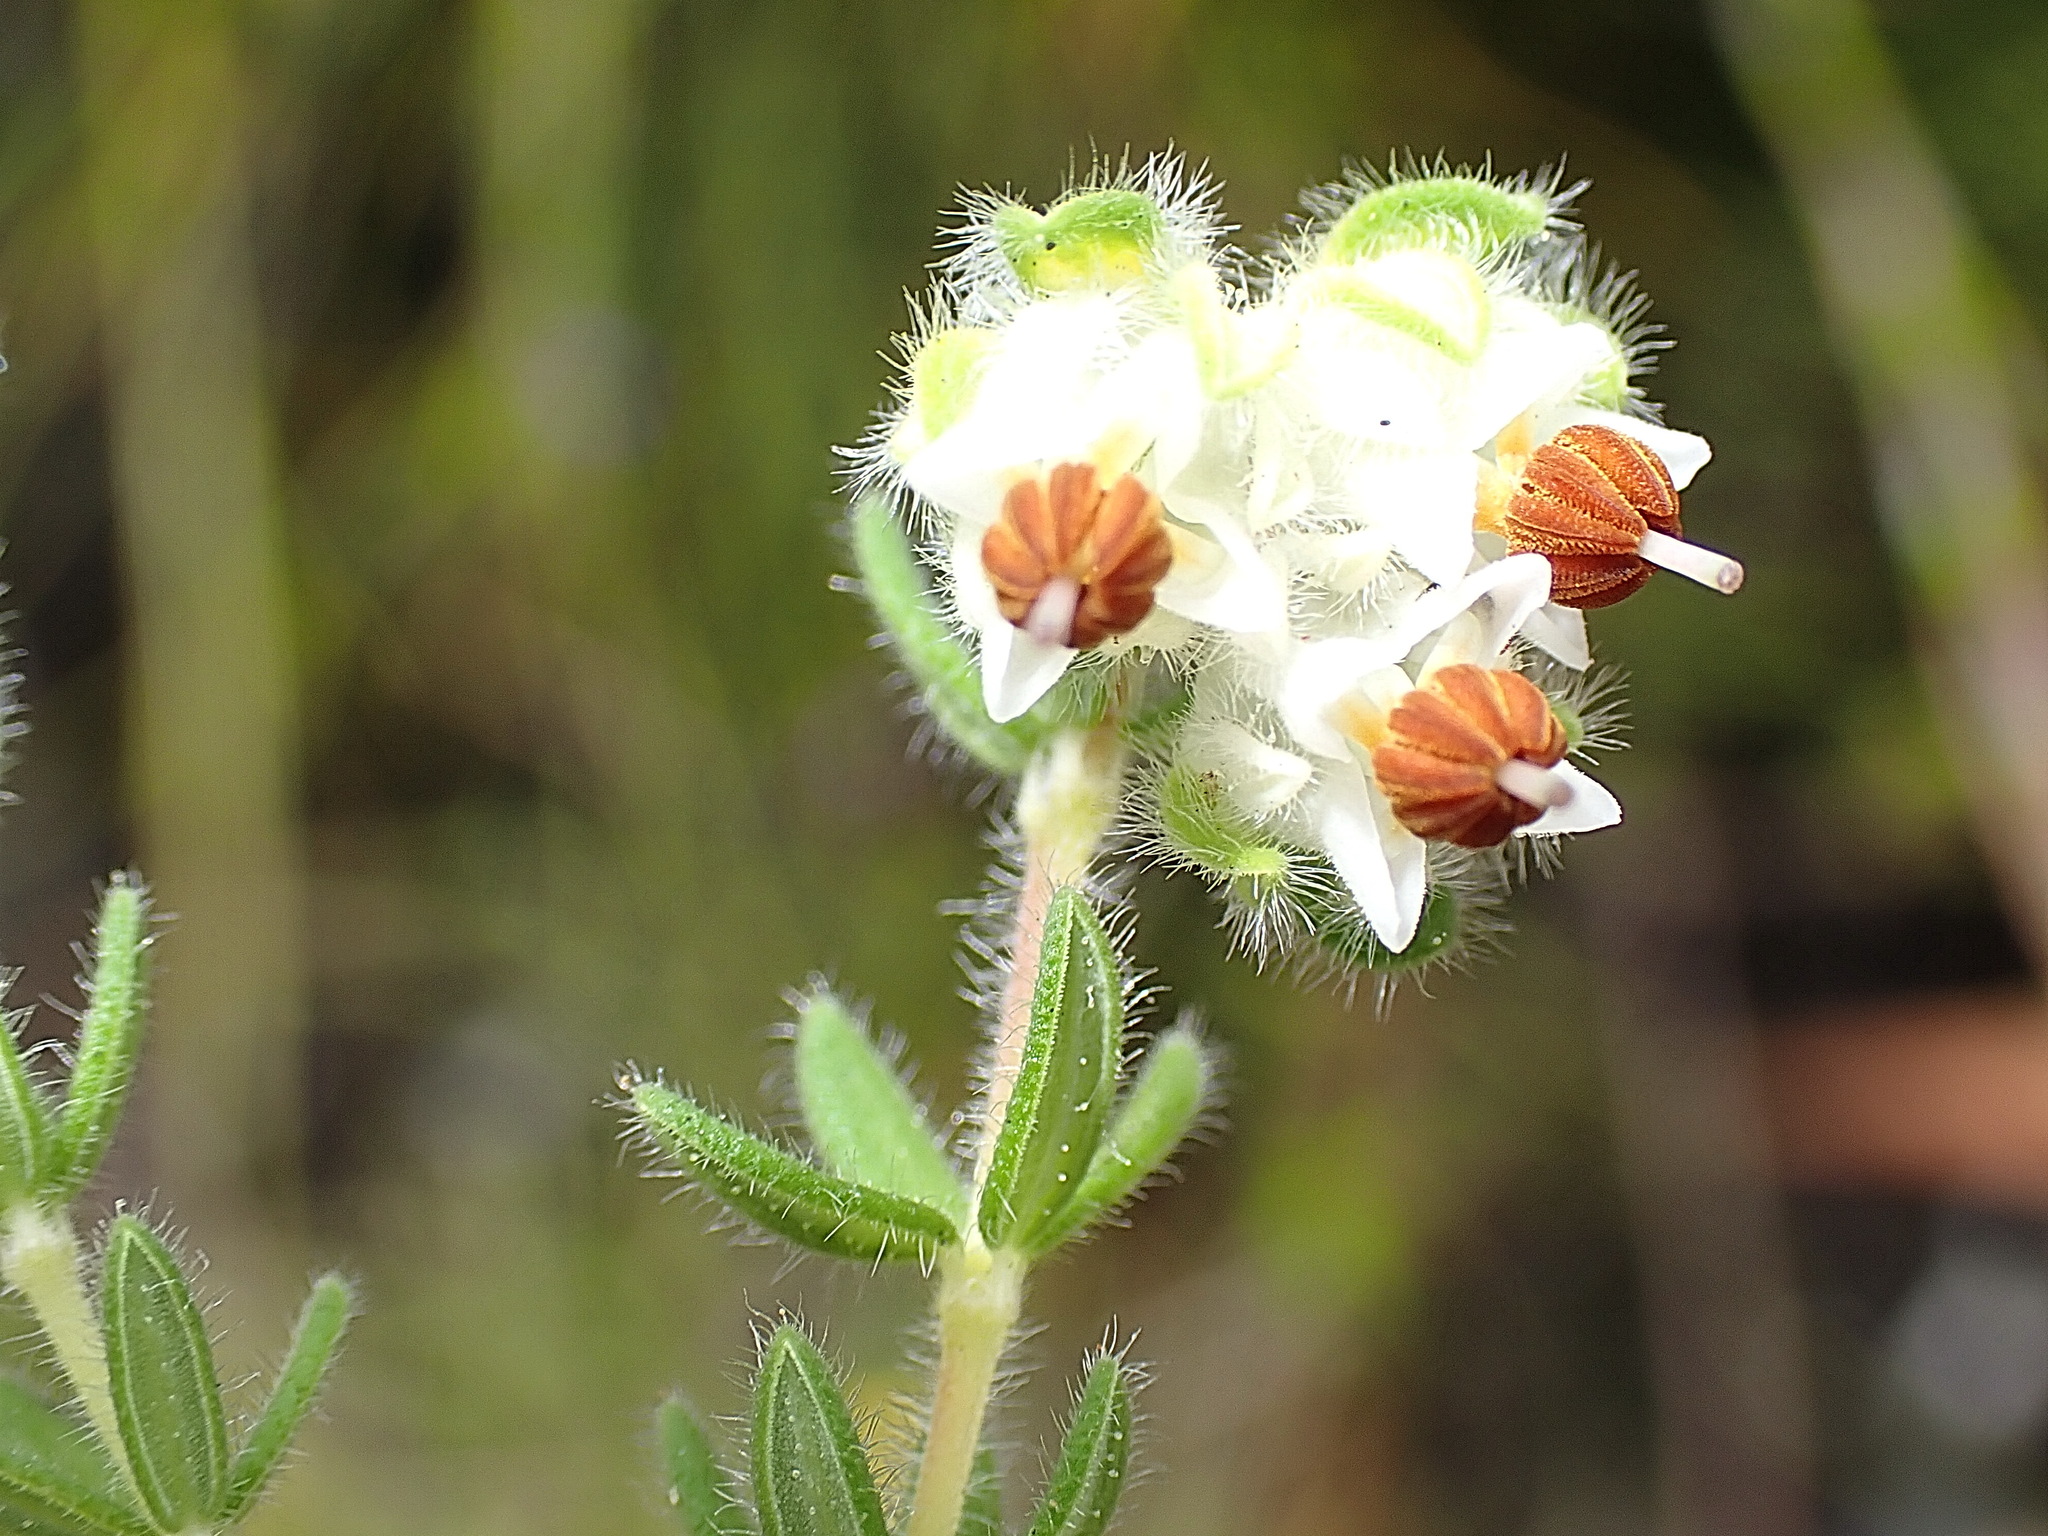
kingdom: Plantae
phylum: Tracheophyta
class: Magnoliopsida
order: Ericales
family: Ericaceae
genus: Erica
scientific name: Erica flaccida
